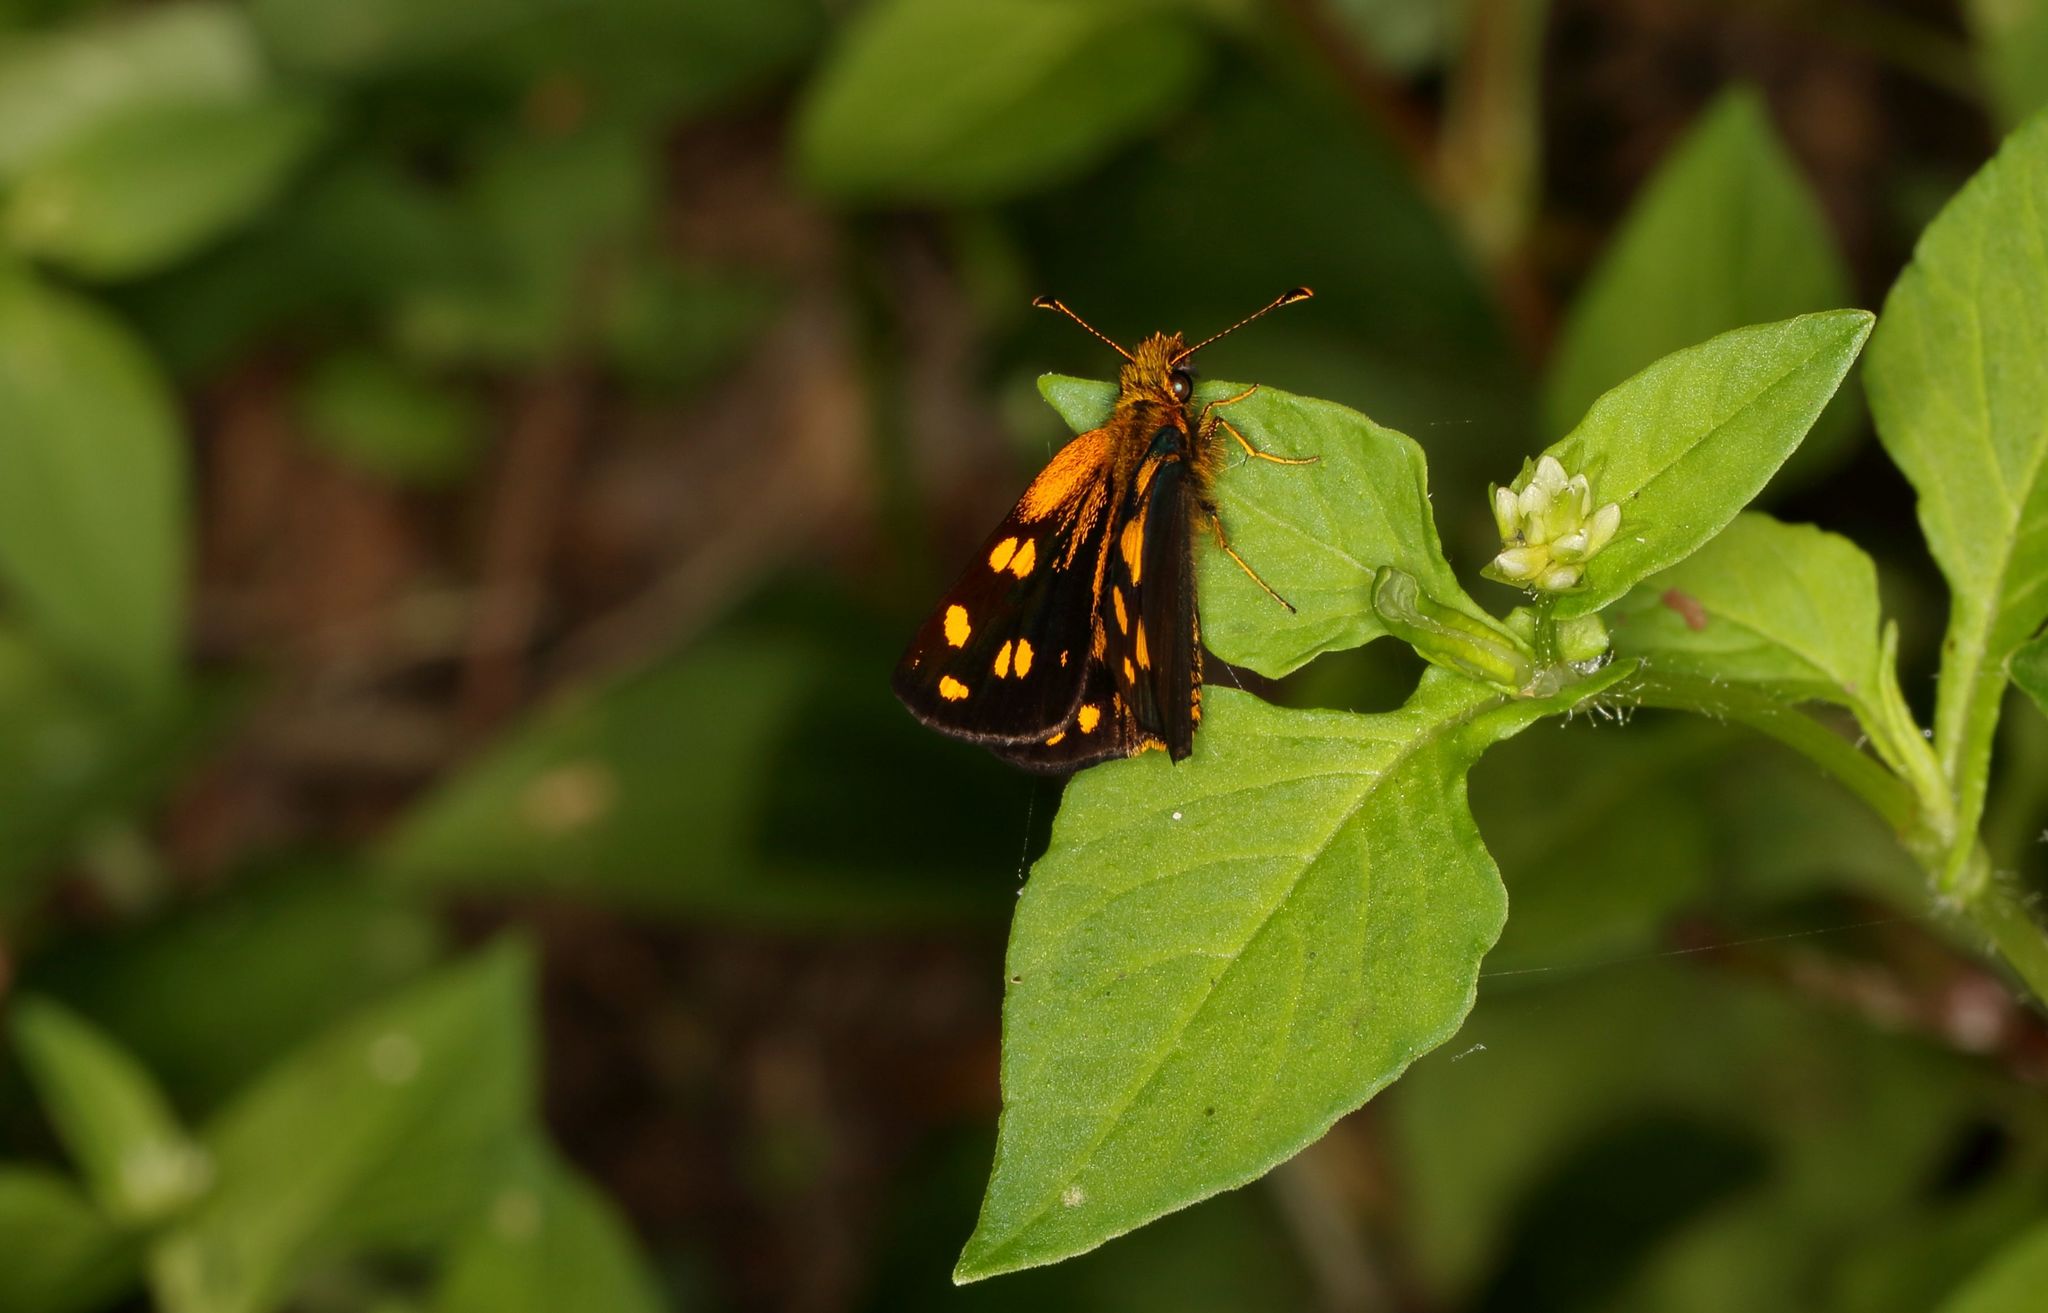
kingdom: Animalia
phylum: Arthropoda
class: Insecta
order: Lepidoptera
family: Hesperiidae
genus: Metisella
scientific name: Metisella metis
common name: Western gold-spotted sylph
